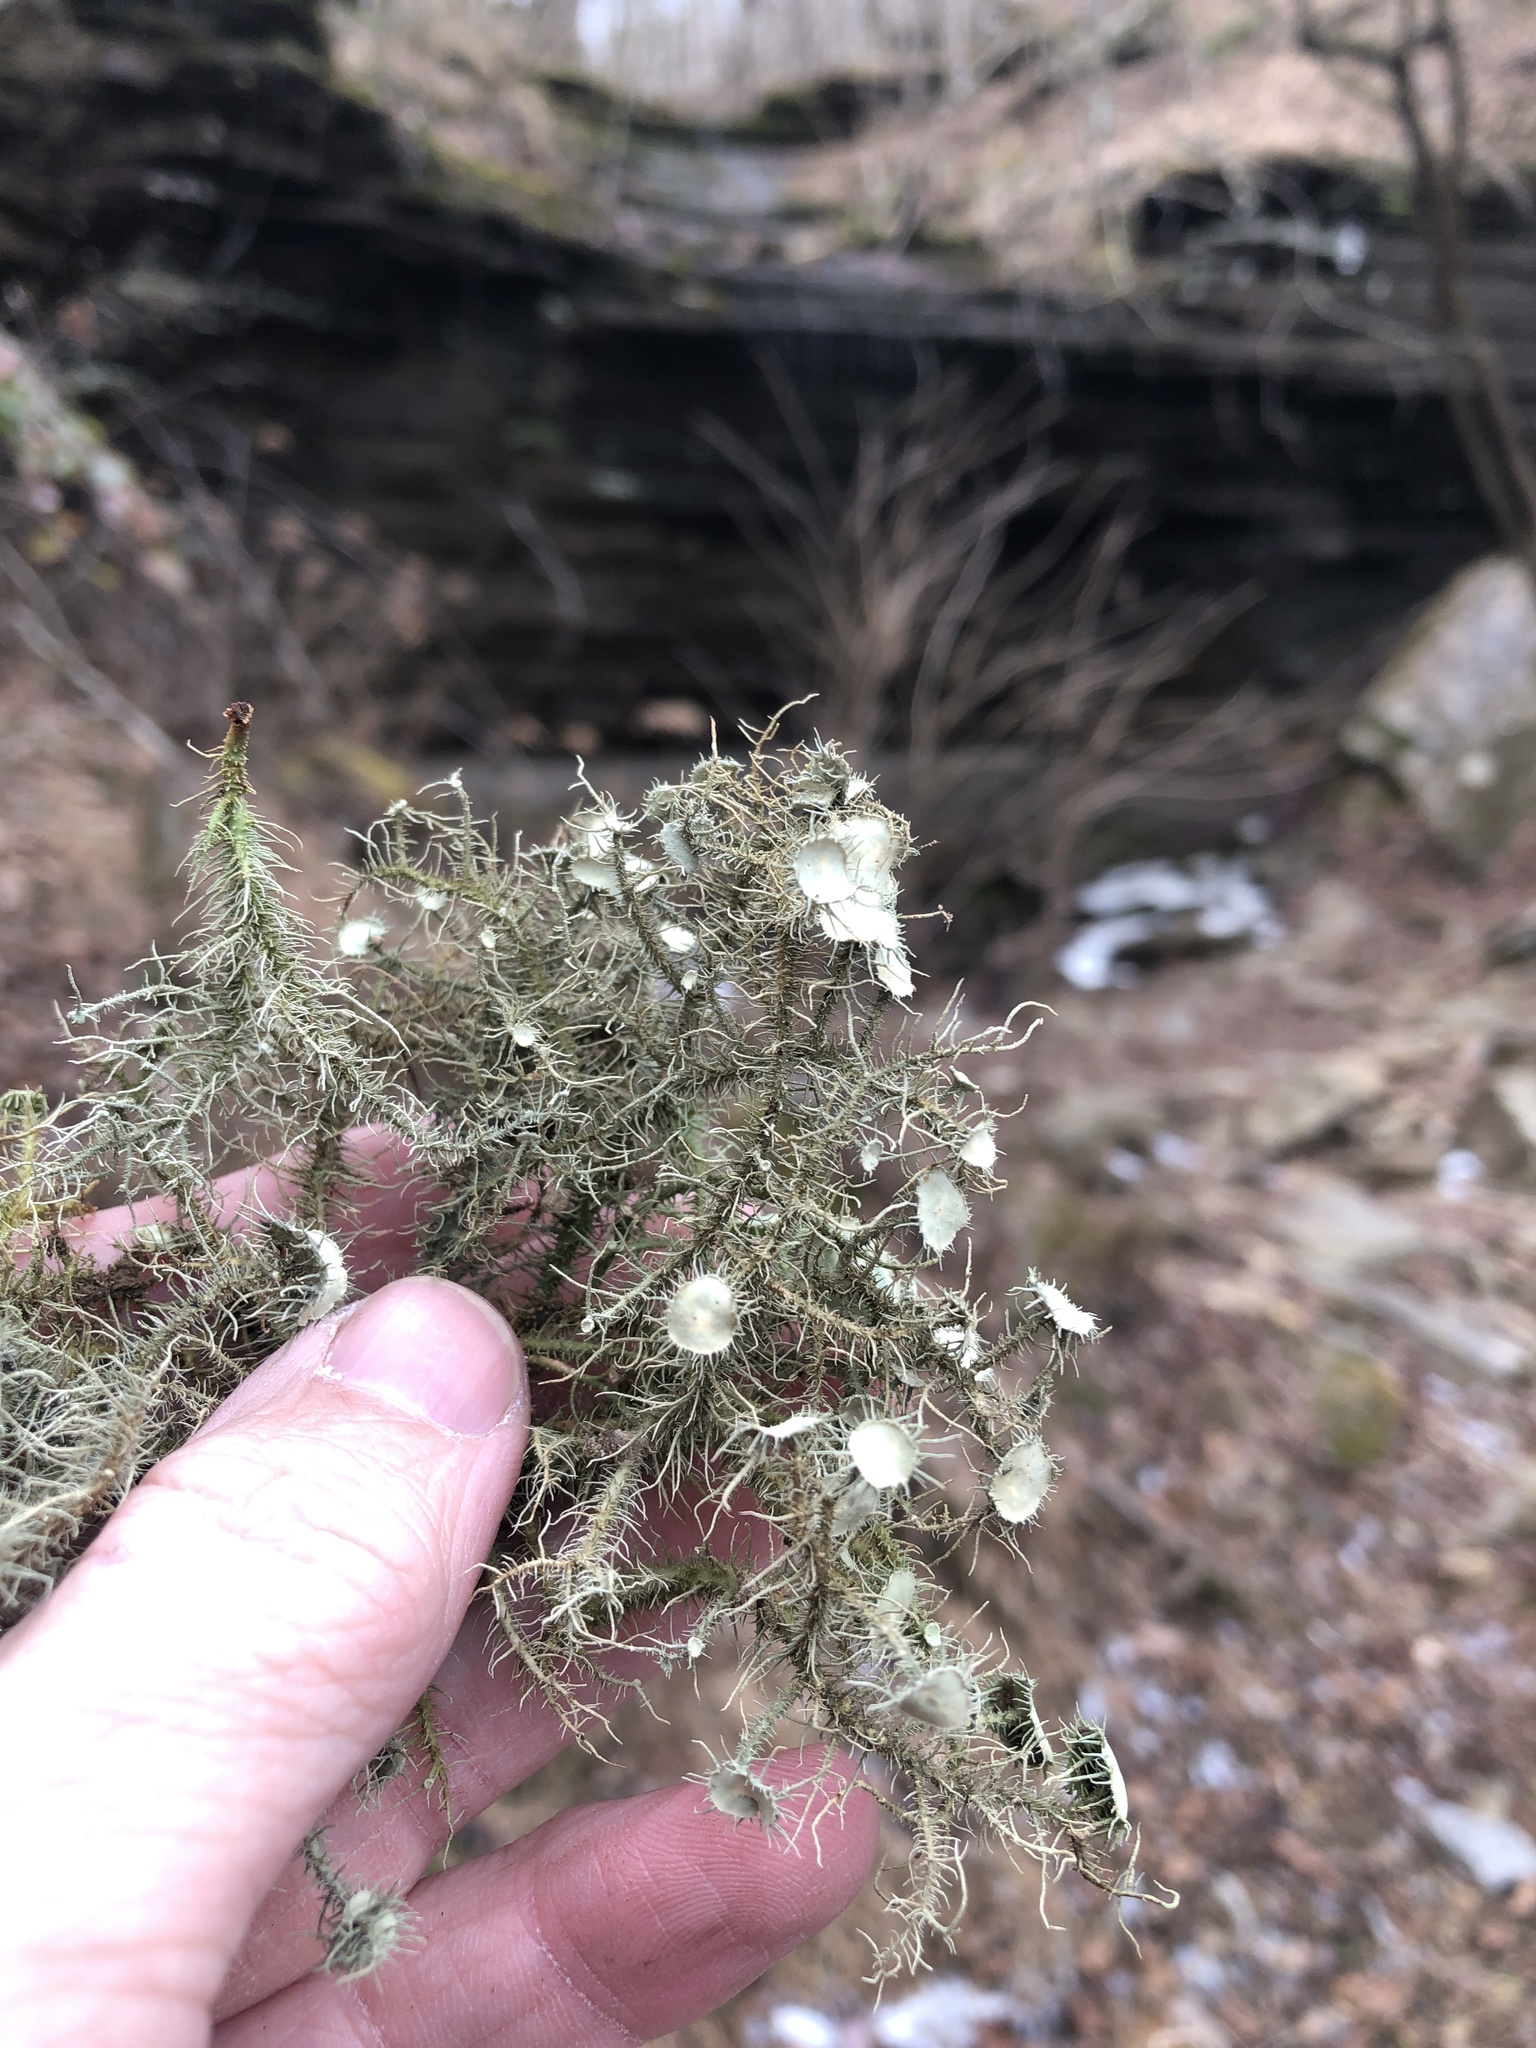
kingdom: Fungi
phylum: Ascomycota
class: Lecanoromycetes
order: Lecanorales
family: Parmeliaceae
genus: Usnea
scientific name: Usnea strigosa
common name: Bushy beard lichen
